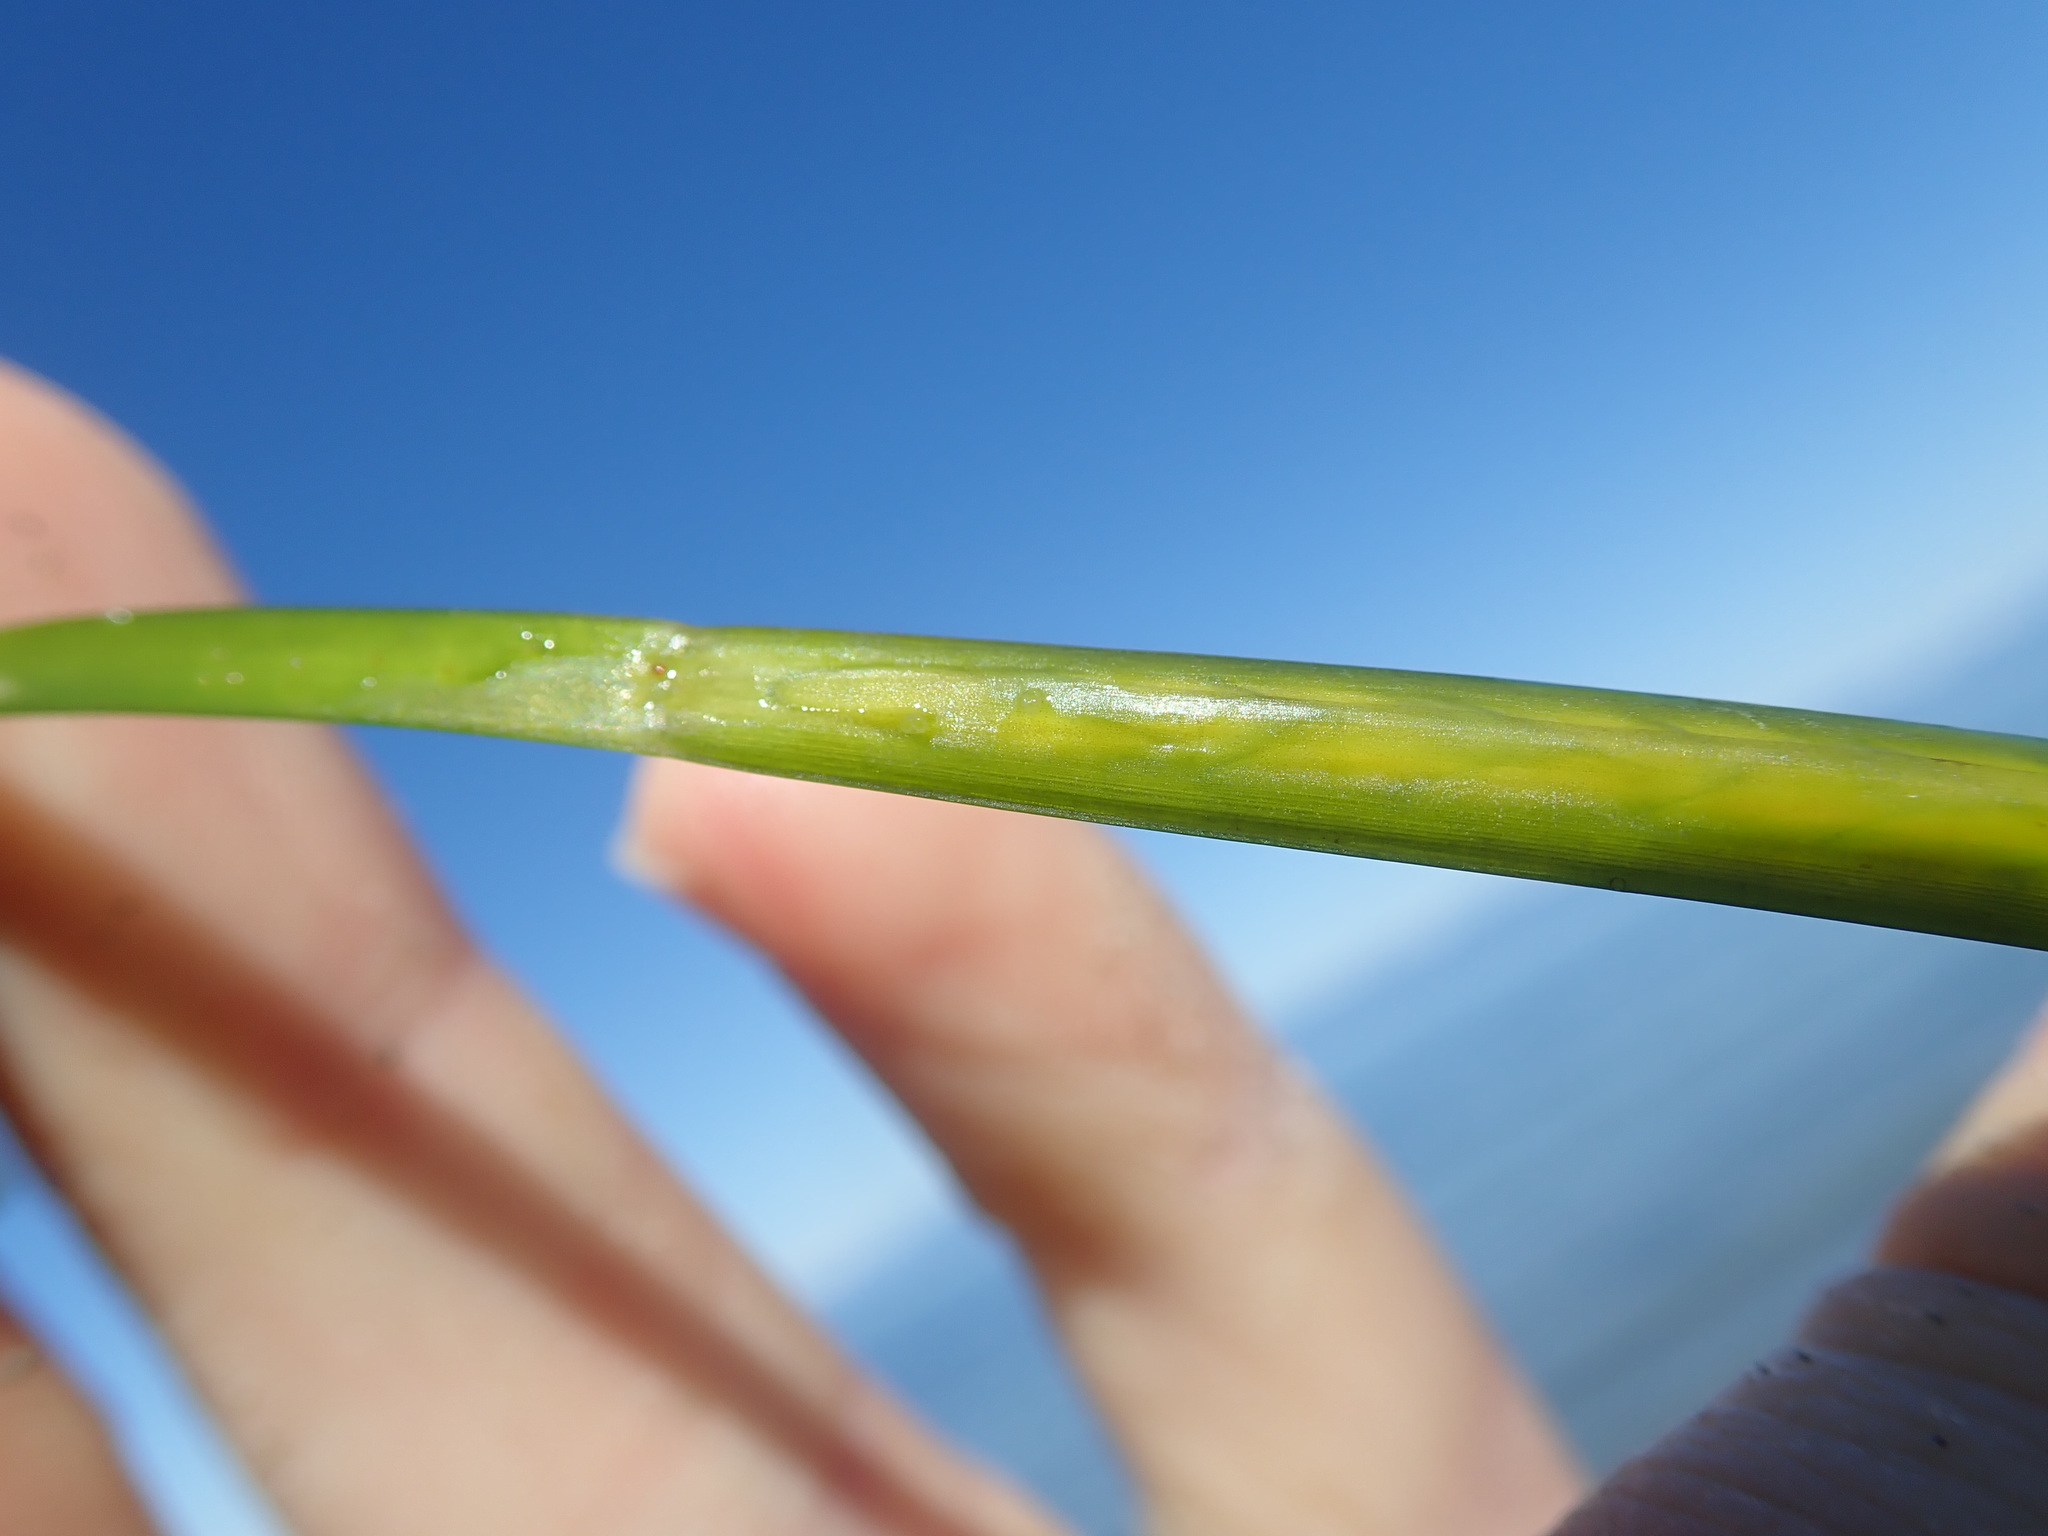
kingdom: Plantae
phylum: Tracheophyta
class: Liliopsida
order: Alismatales
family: Zosteraceae
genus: Zostera
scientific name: Zostera japonica
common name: Dwarf eelgrass
